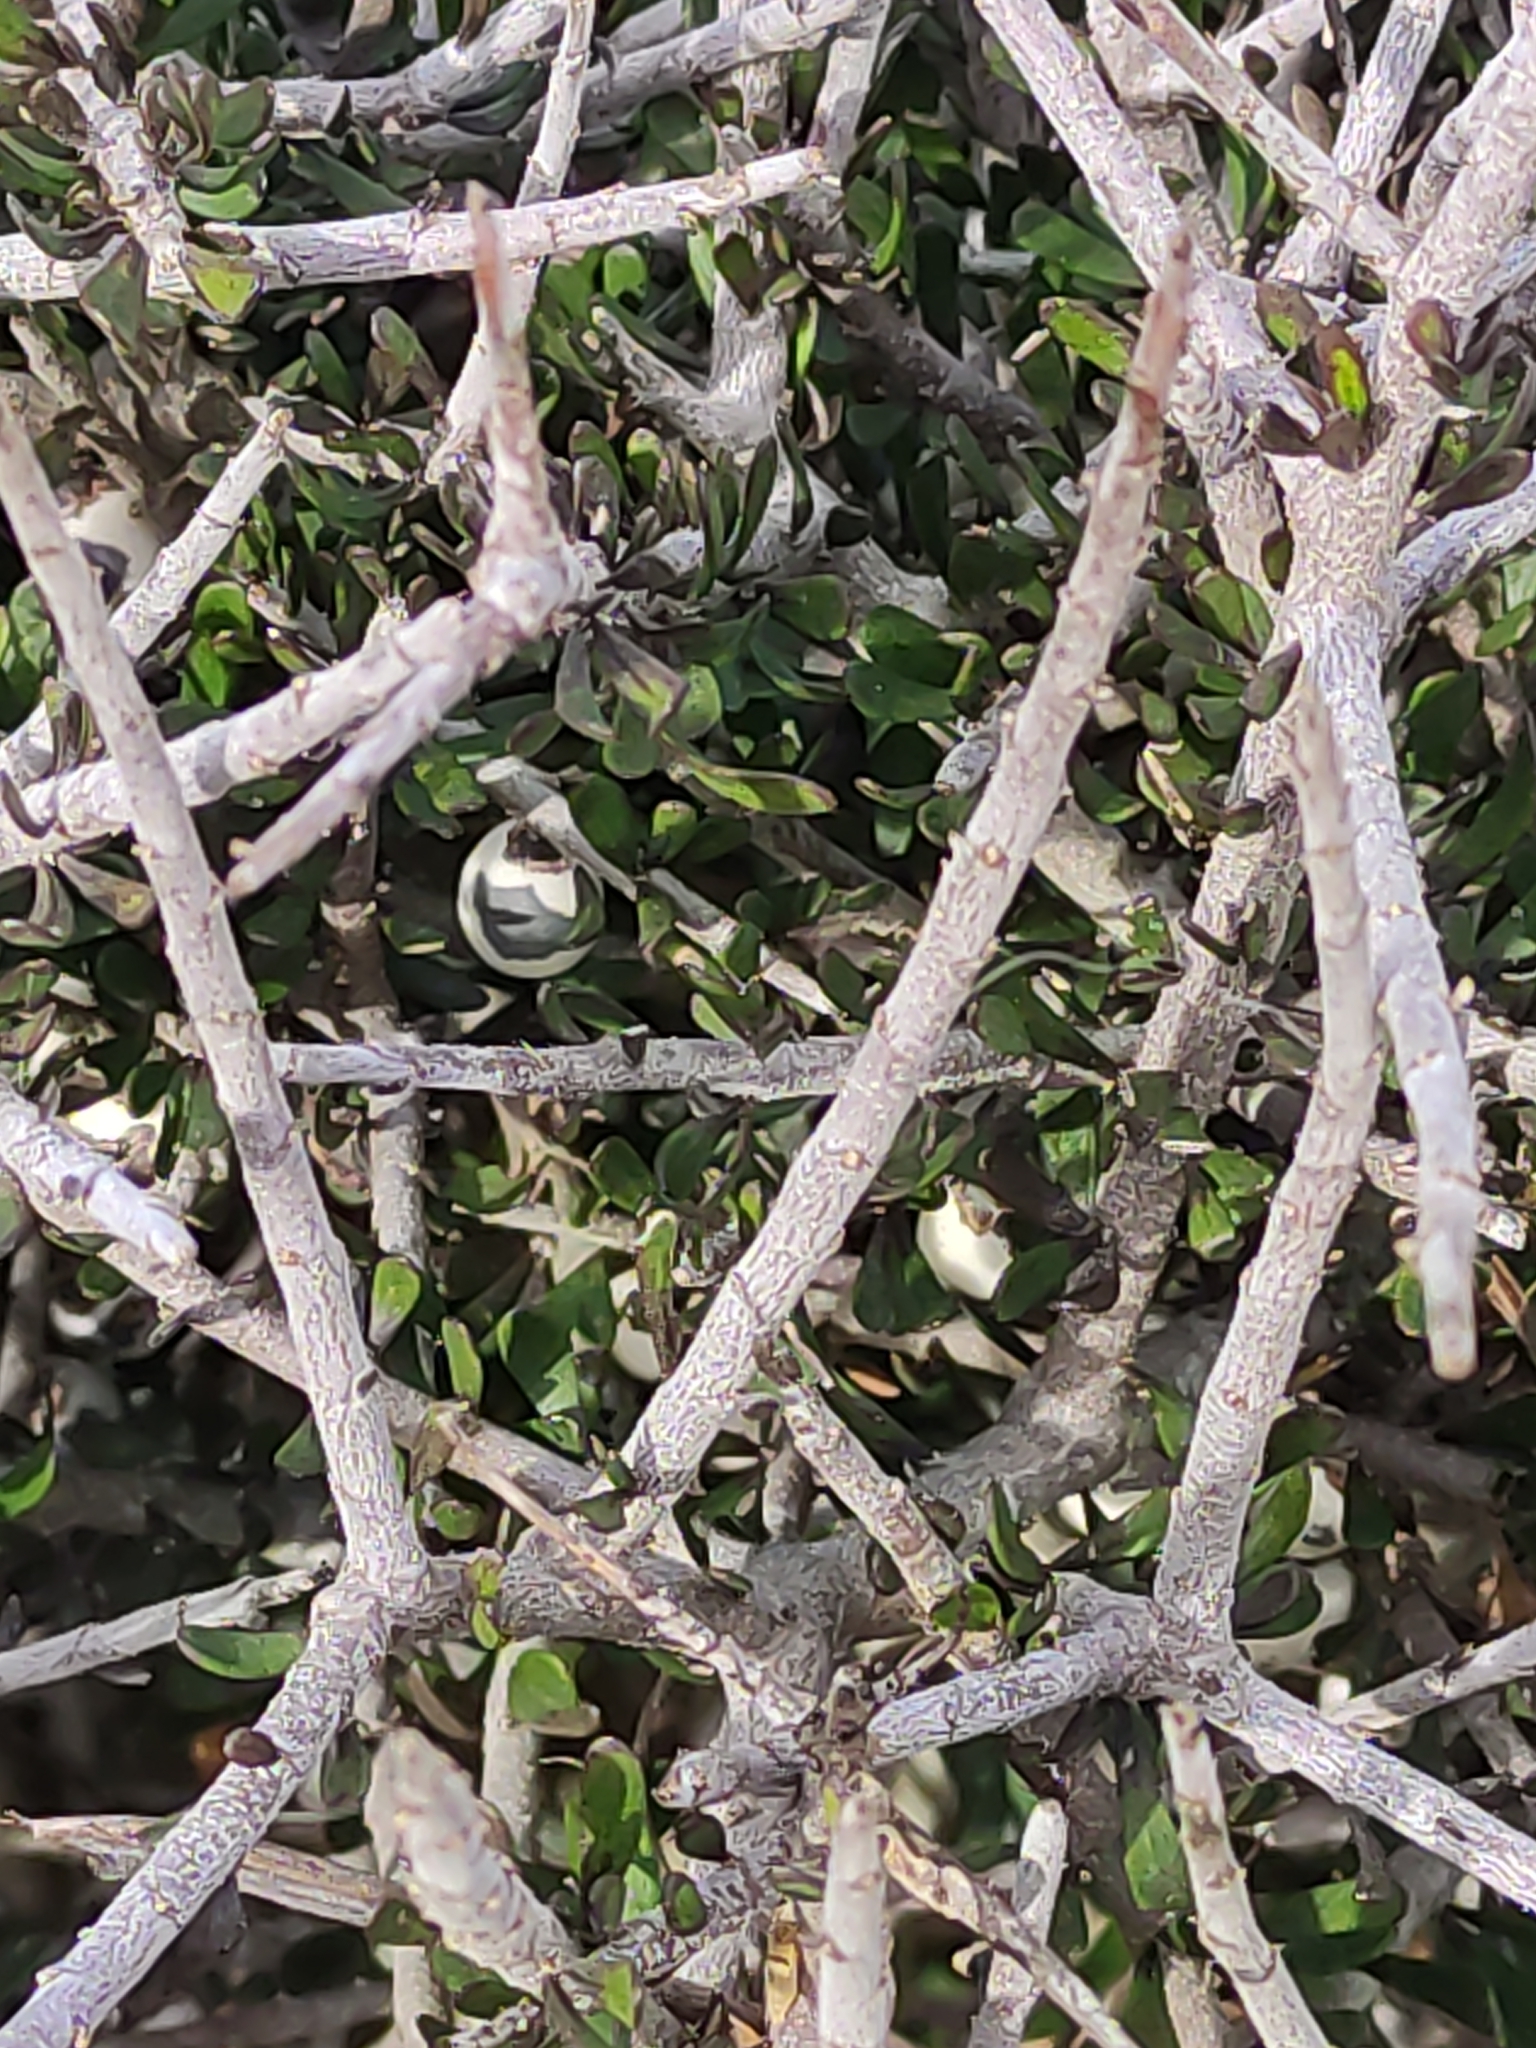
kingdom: Plantae
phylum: Tracheophyta
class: Magnoliopsida
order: Malpighiales
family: Violaceae
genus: Melicytus
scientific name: Melicytus alpinus
